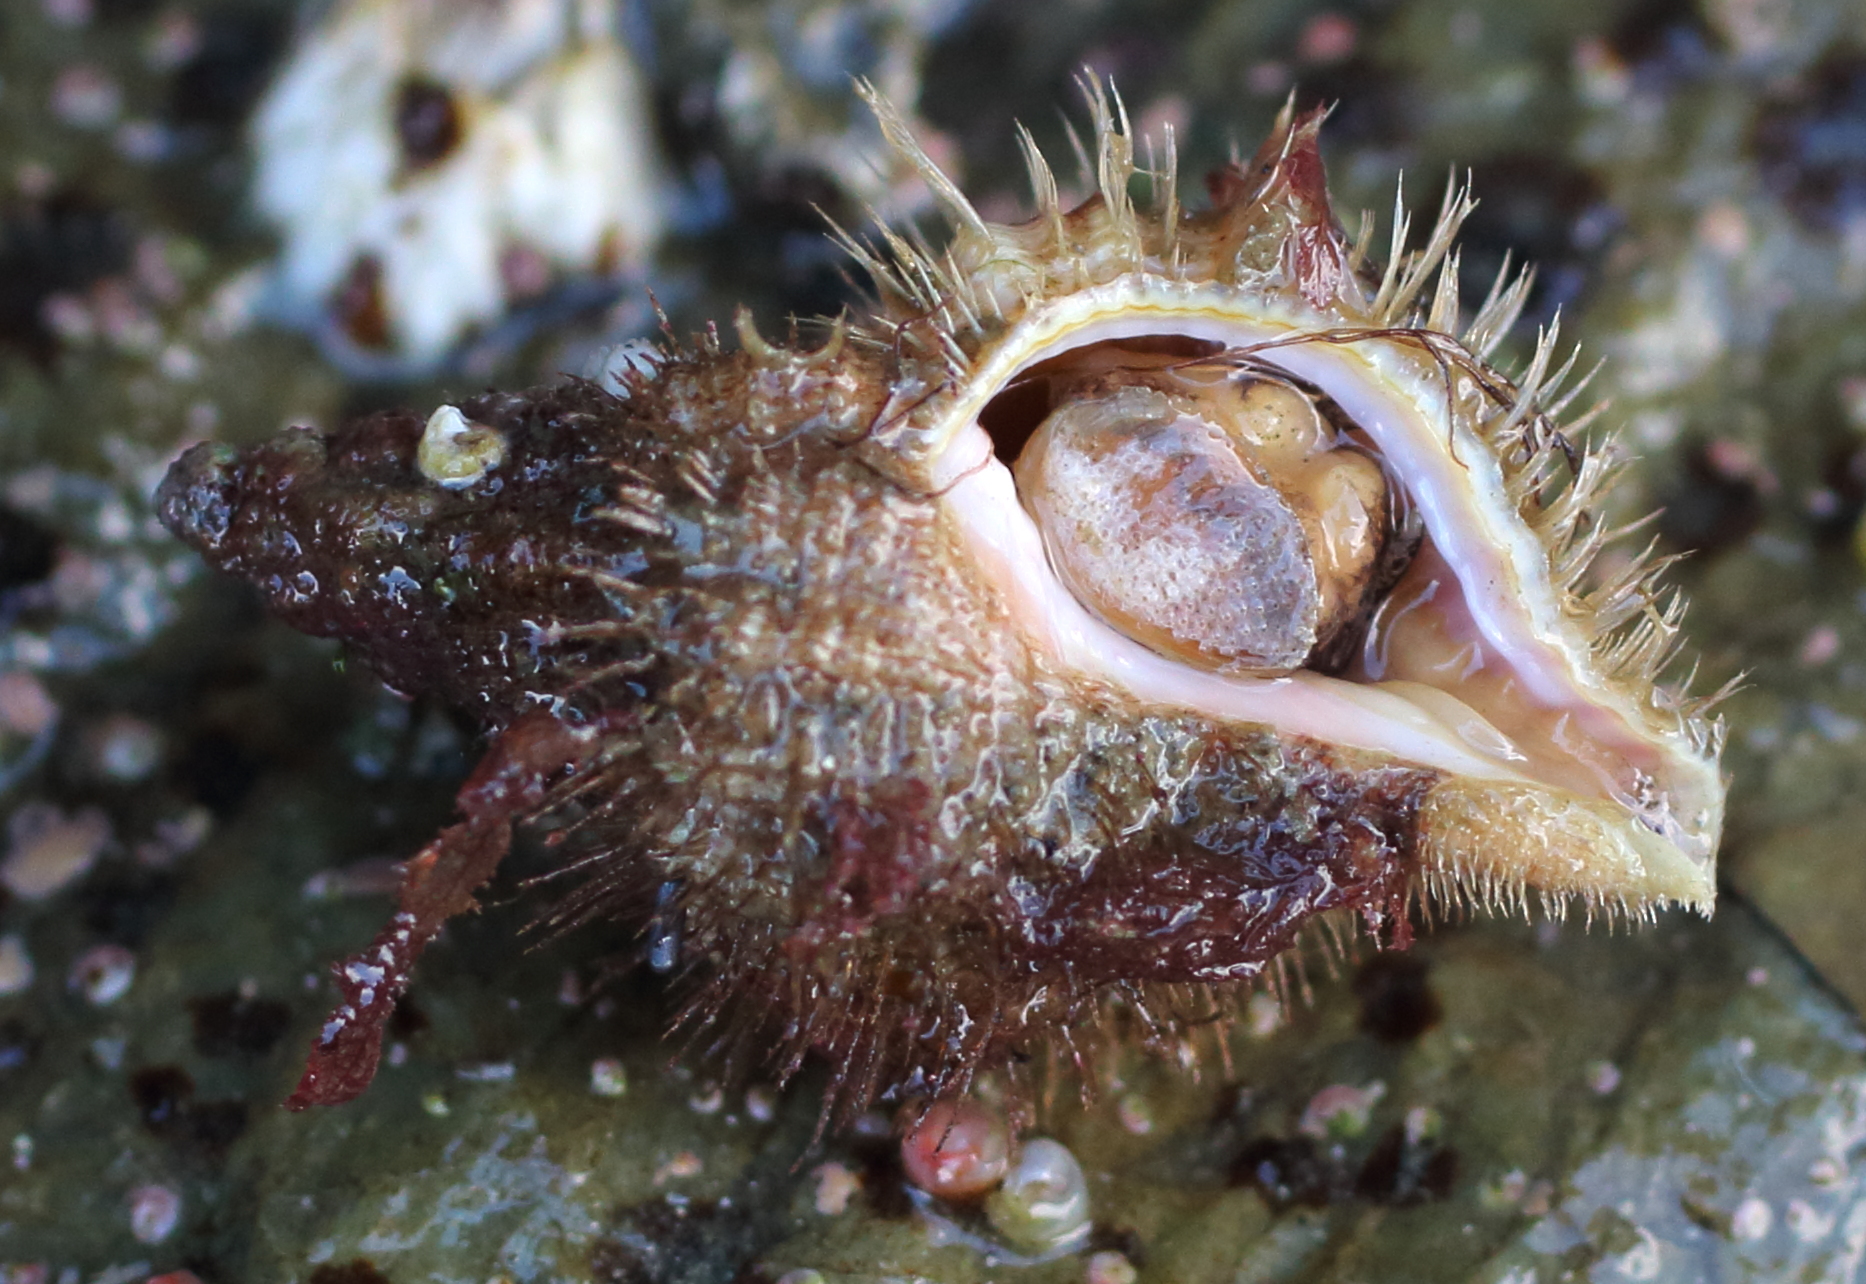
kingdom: Animalia
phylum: Mollusca
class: Gastropoda
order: Littorinimorpha
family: Cymatiidae
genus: Fusitriton
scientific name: Fusitriton oregonensis
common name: Oregon hairy triton
